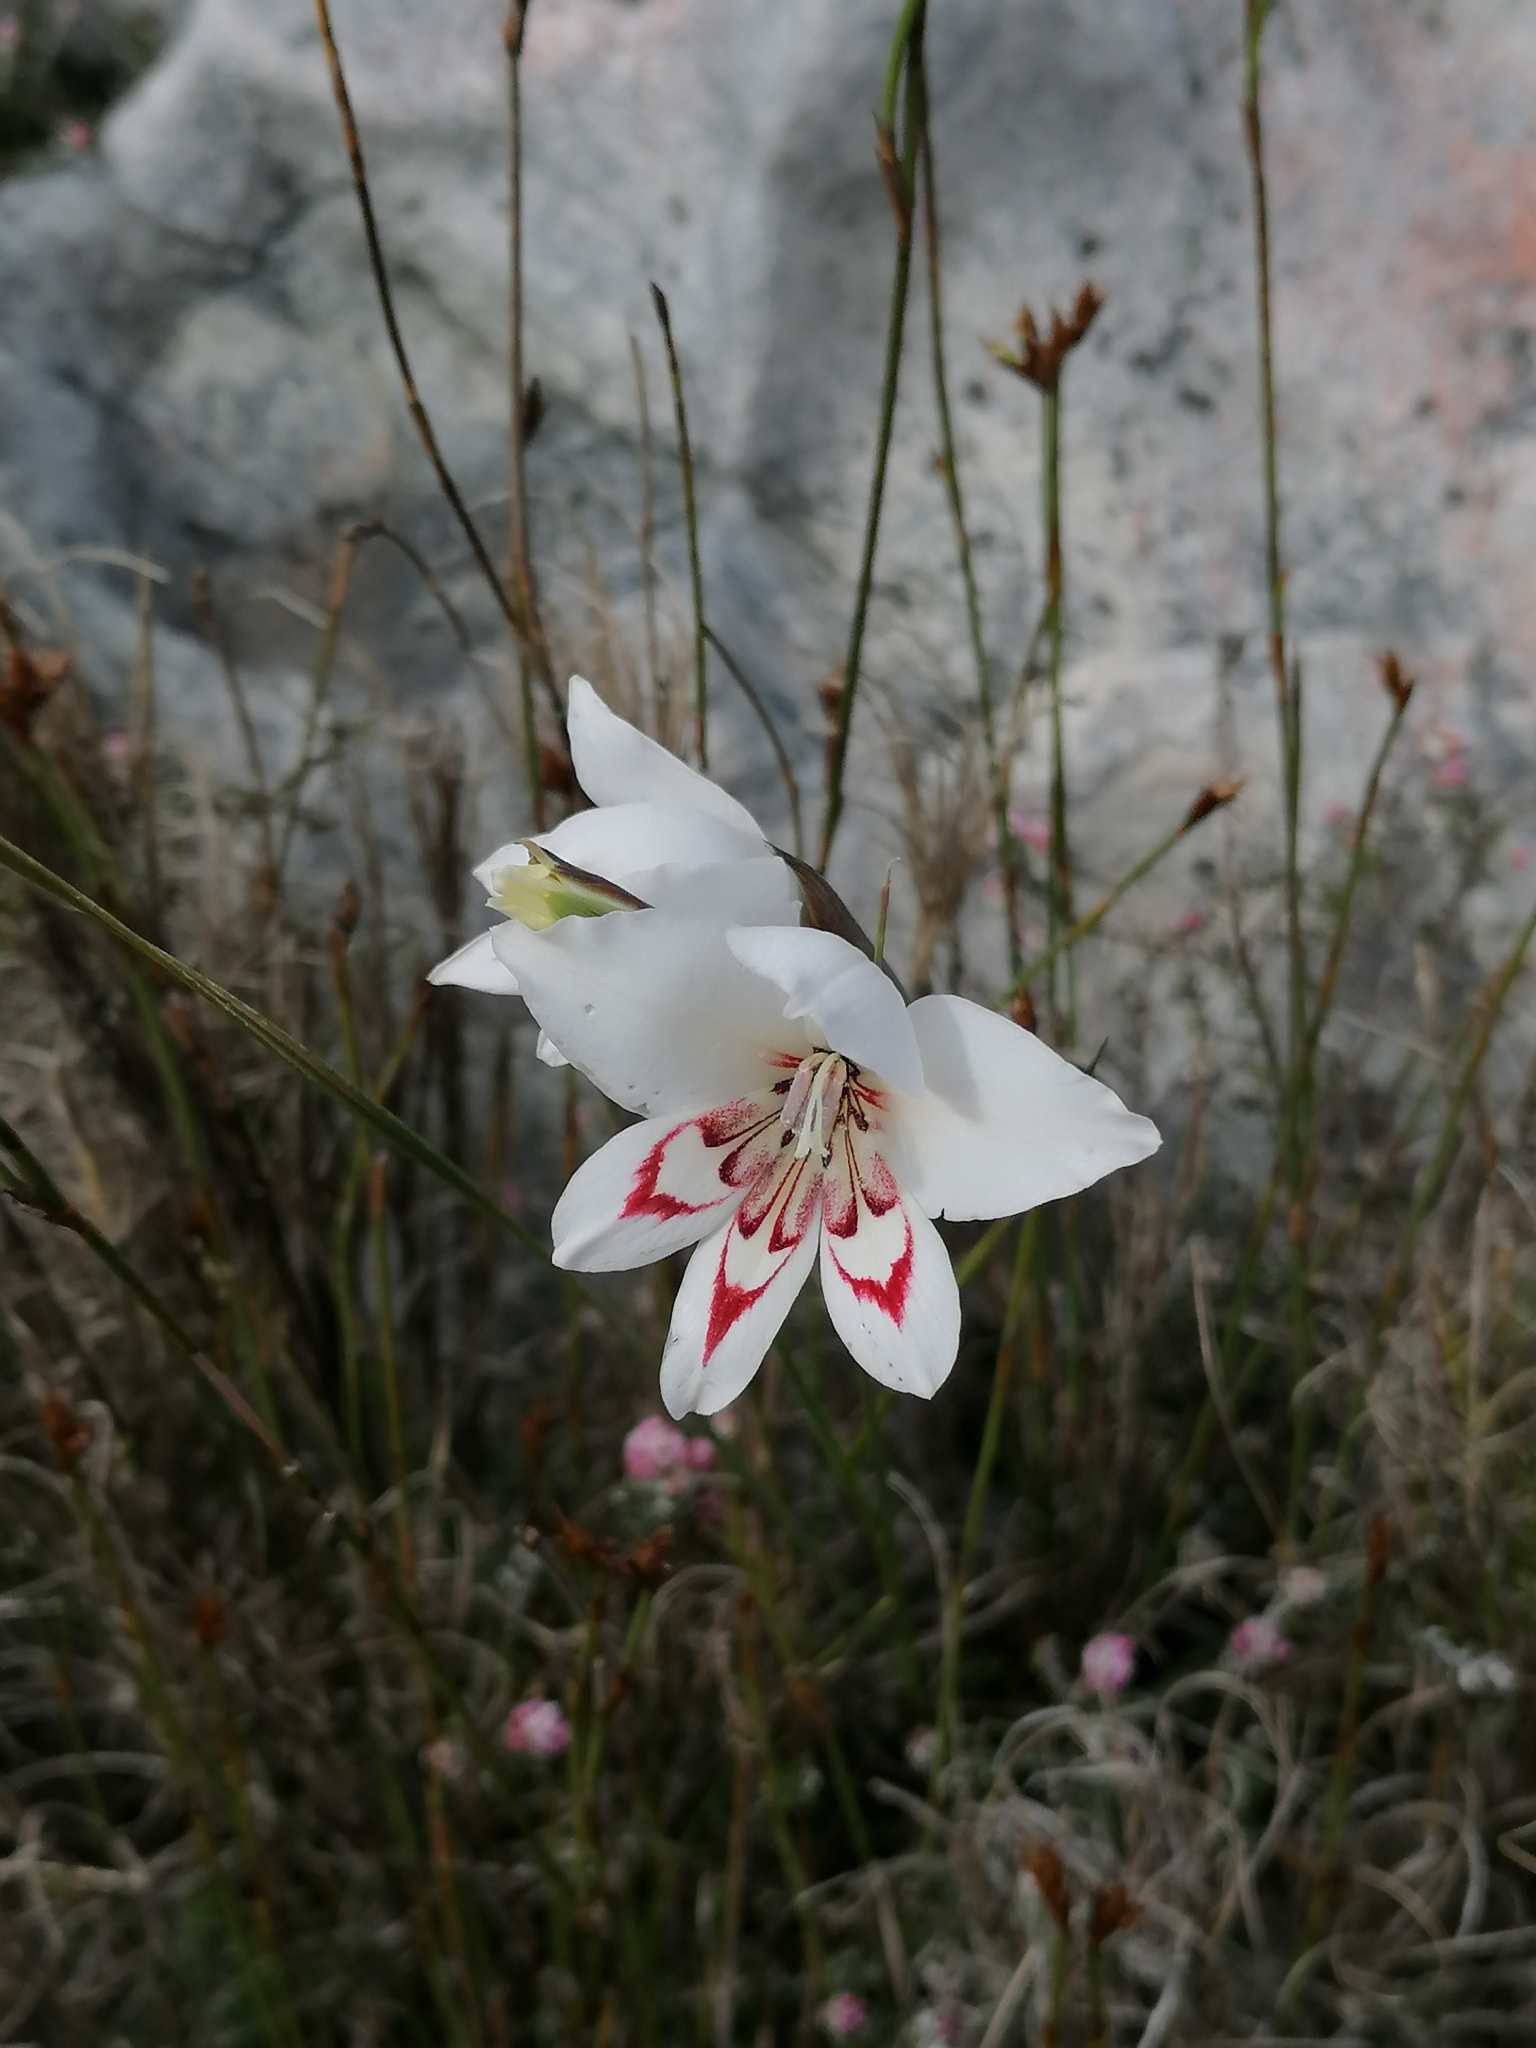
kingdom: Plantae
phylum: Tracheophyta
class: Liliopsida
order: Asparagales
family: Iridaceae
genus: Gladiolus
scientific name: Gladiolus debilis
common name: Painted-lady
